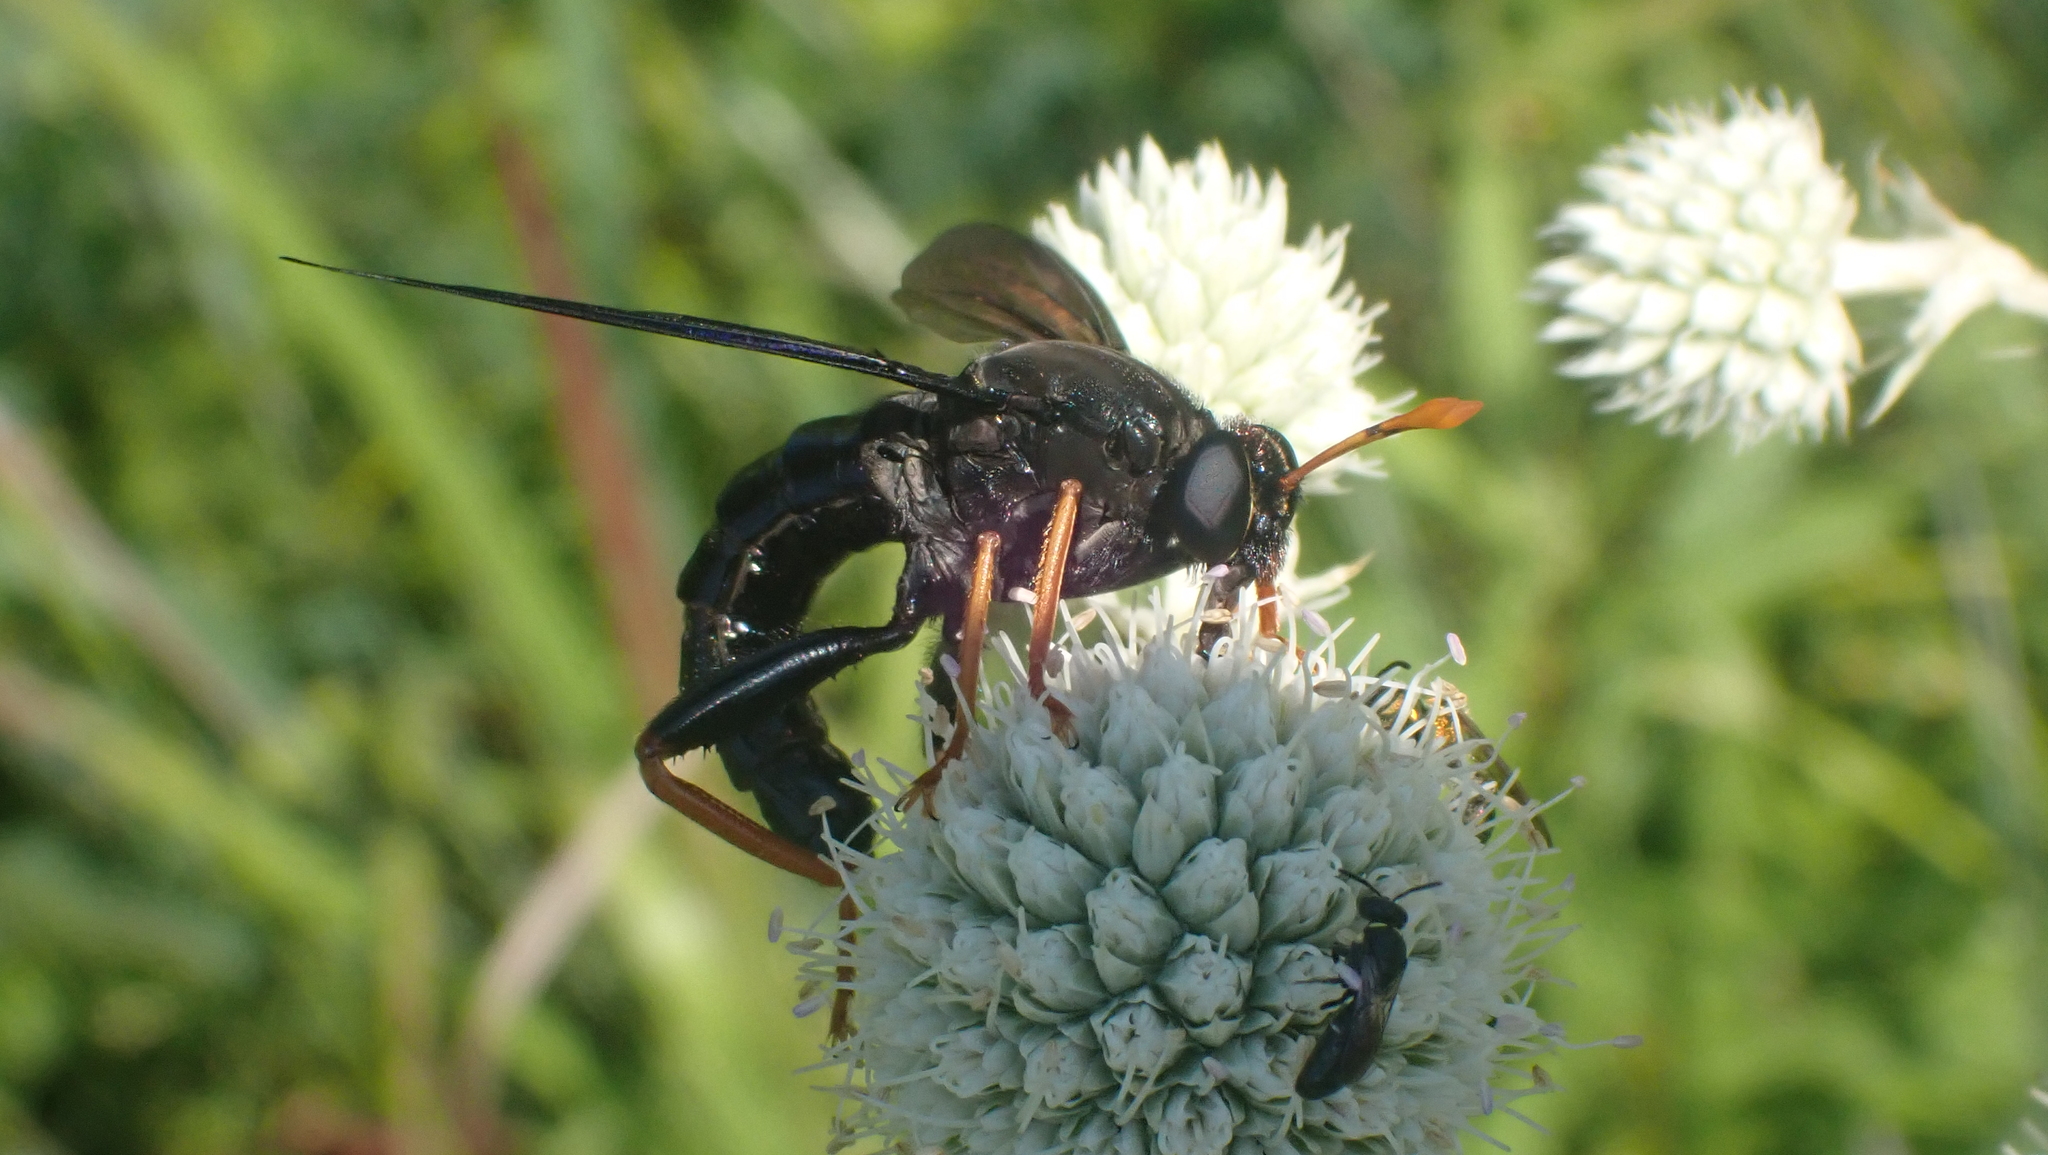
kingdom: Animalia
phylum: Arthropoda
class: Insecta
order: Diptera
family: Mydidae
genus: Mydas
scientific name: Mydas tibialis
